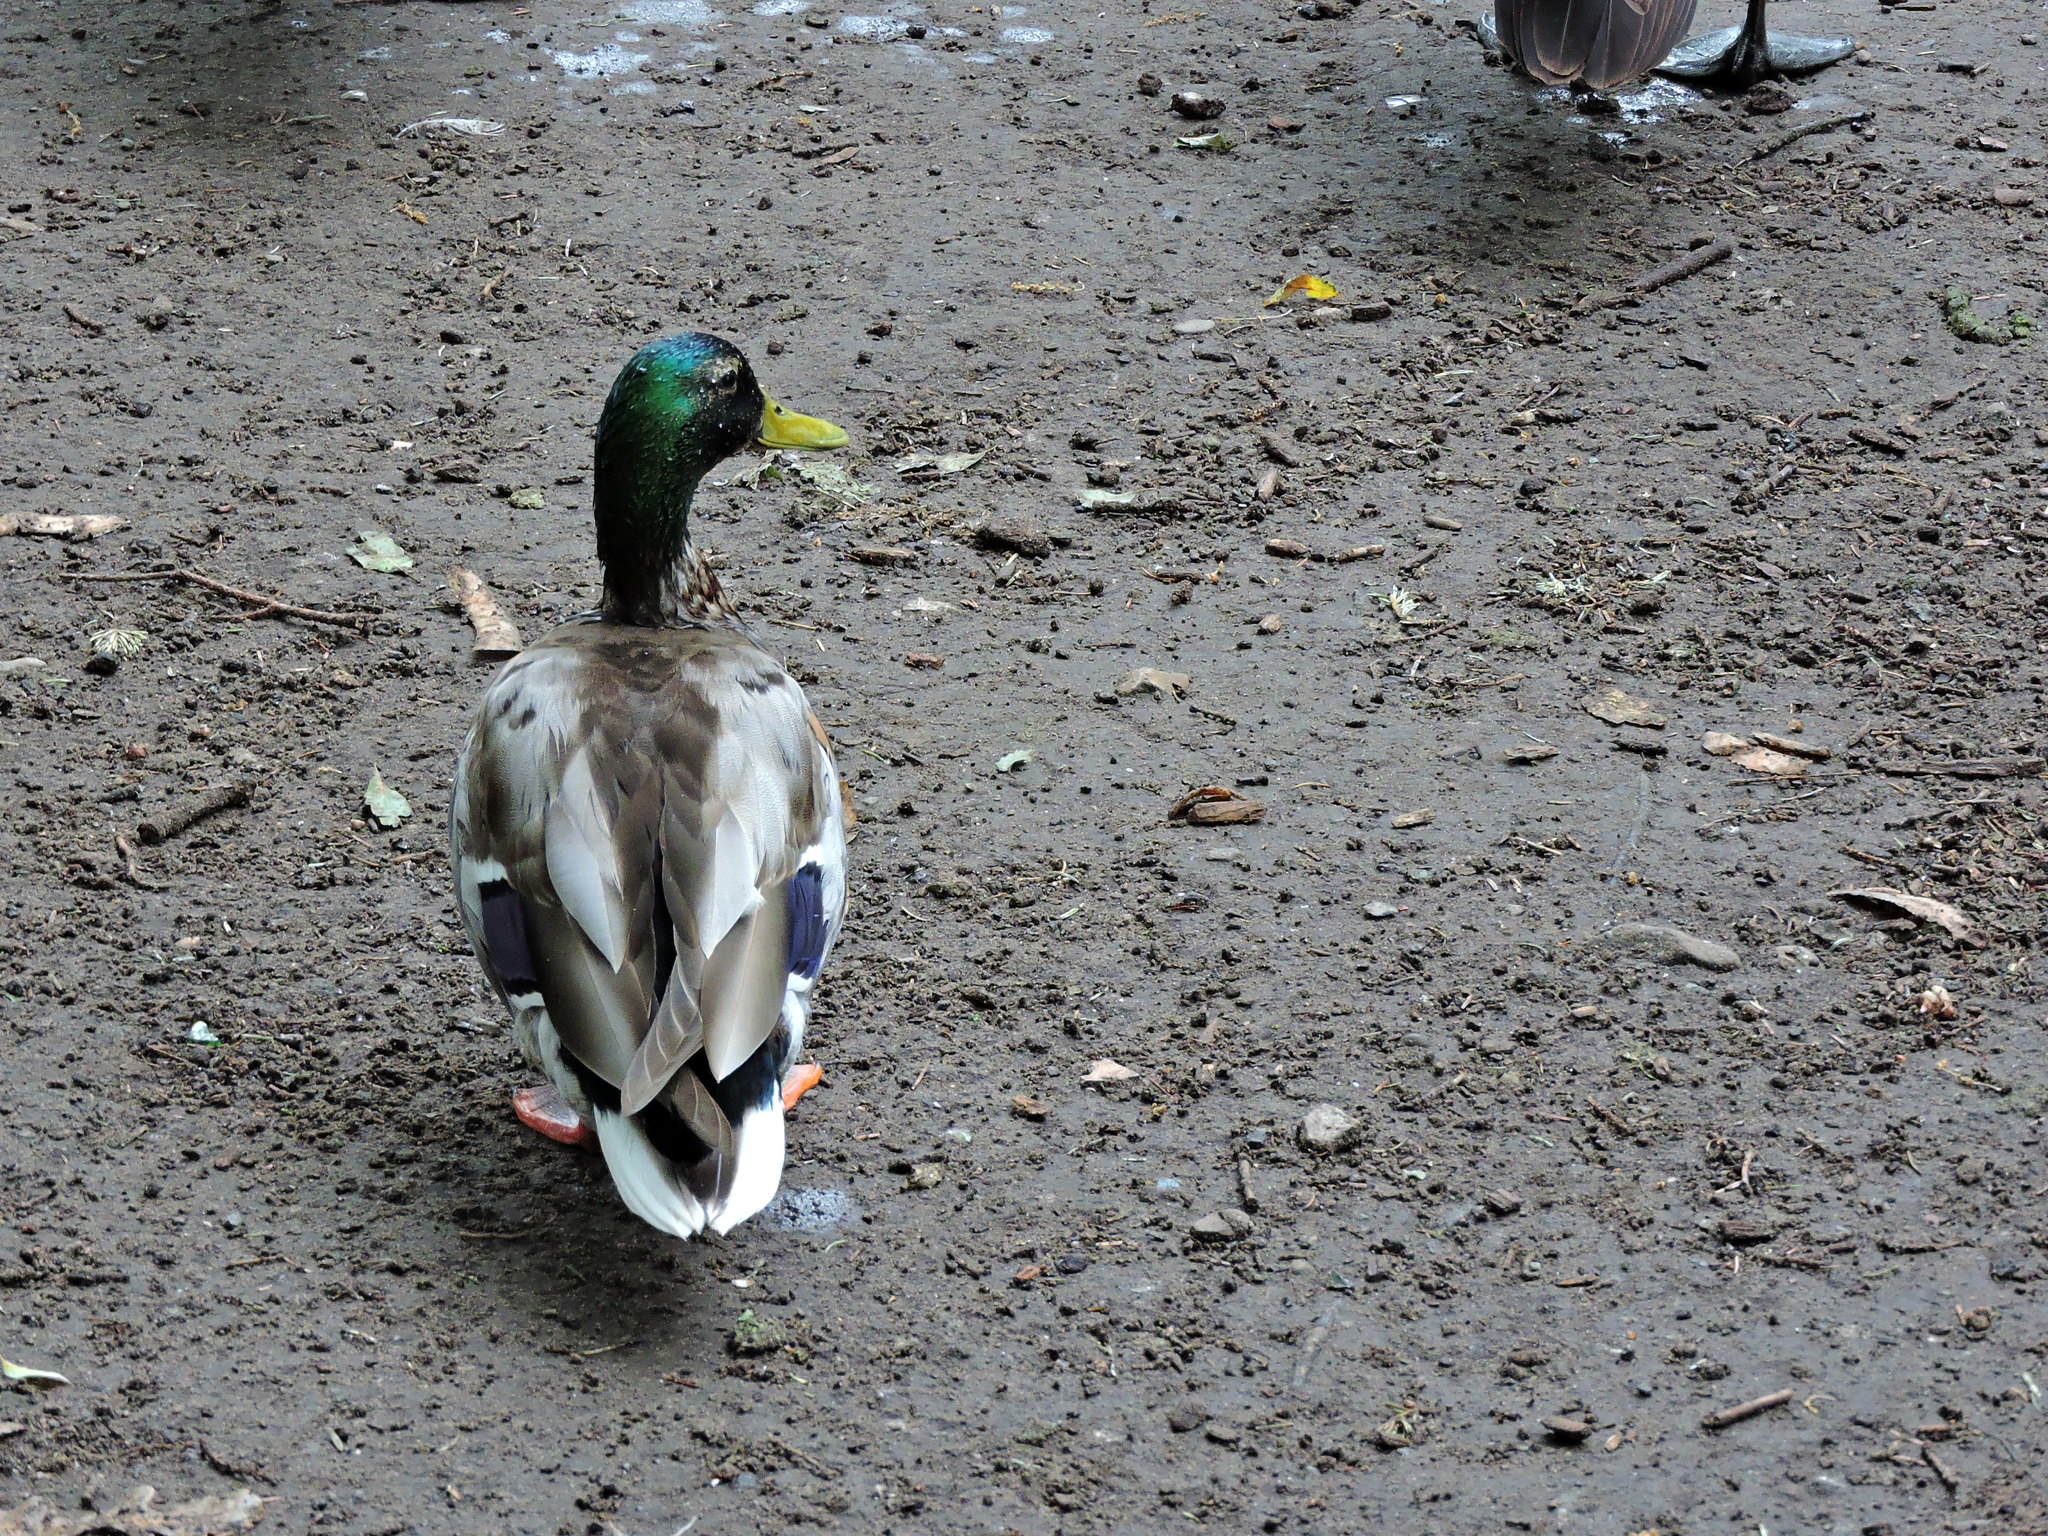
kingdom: Animalia
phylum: Chordata
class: Aves
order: Anseriformes
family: Anatidae
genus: Anas
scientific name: Anas platyrhynchos
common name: Mallard
